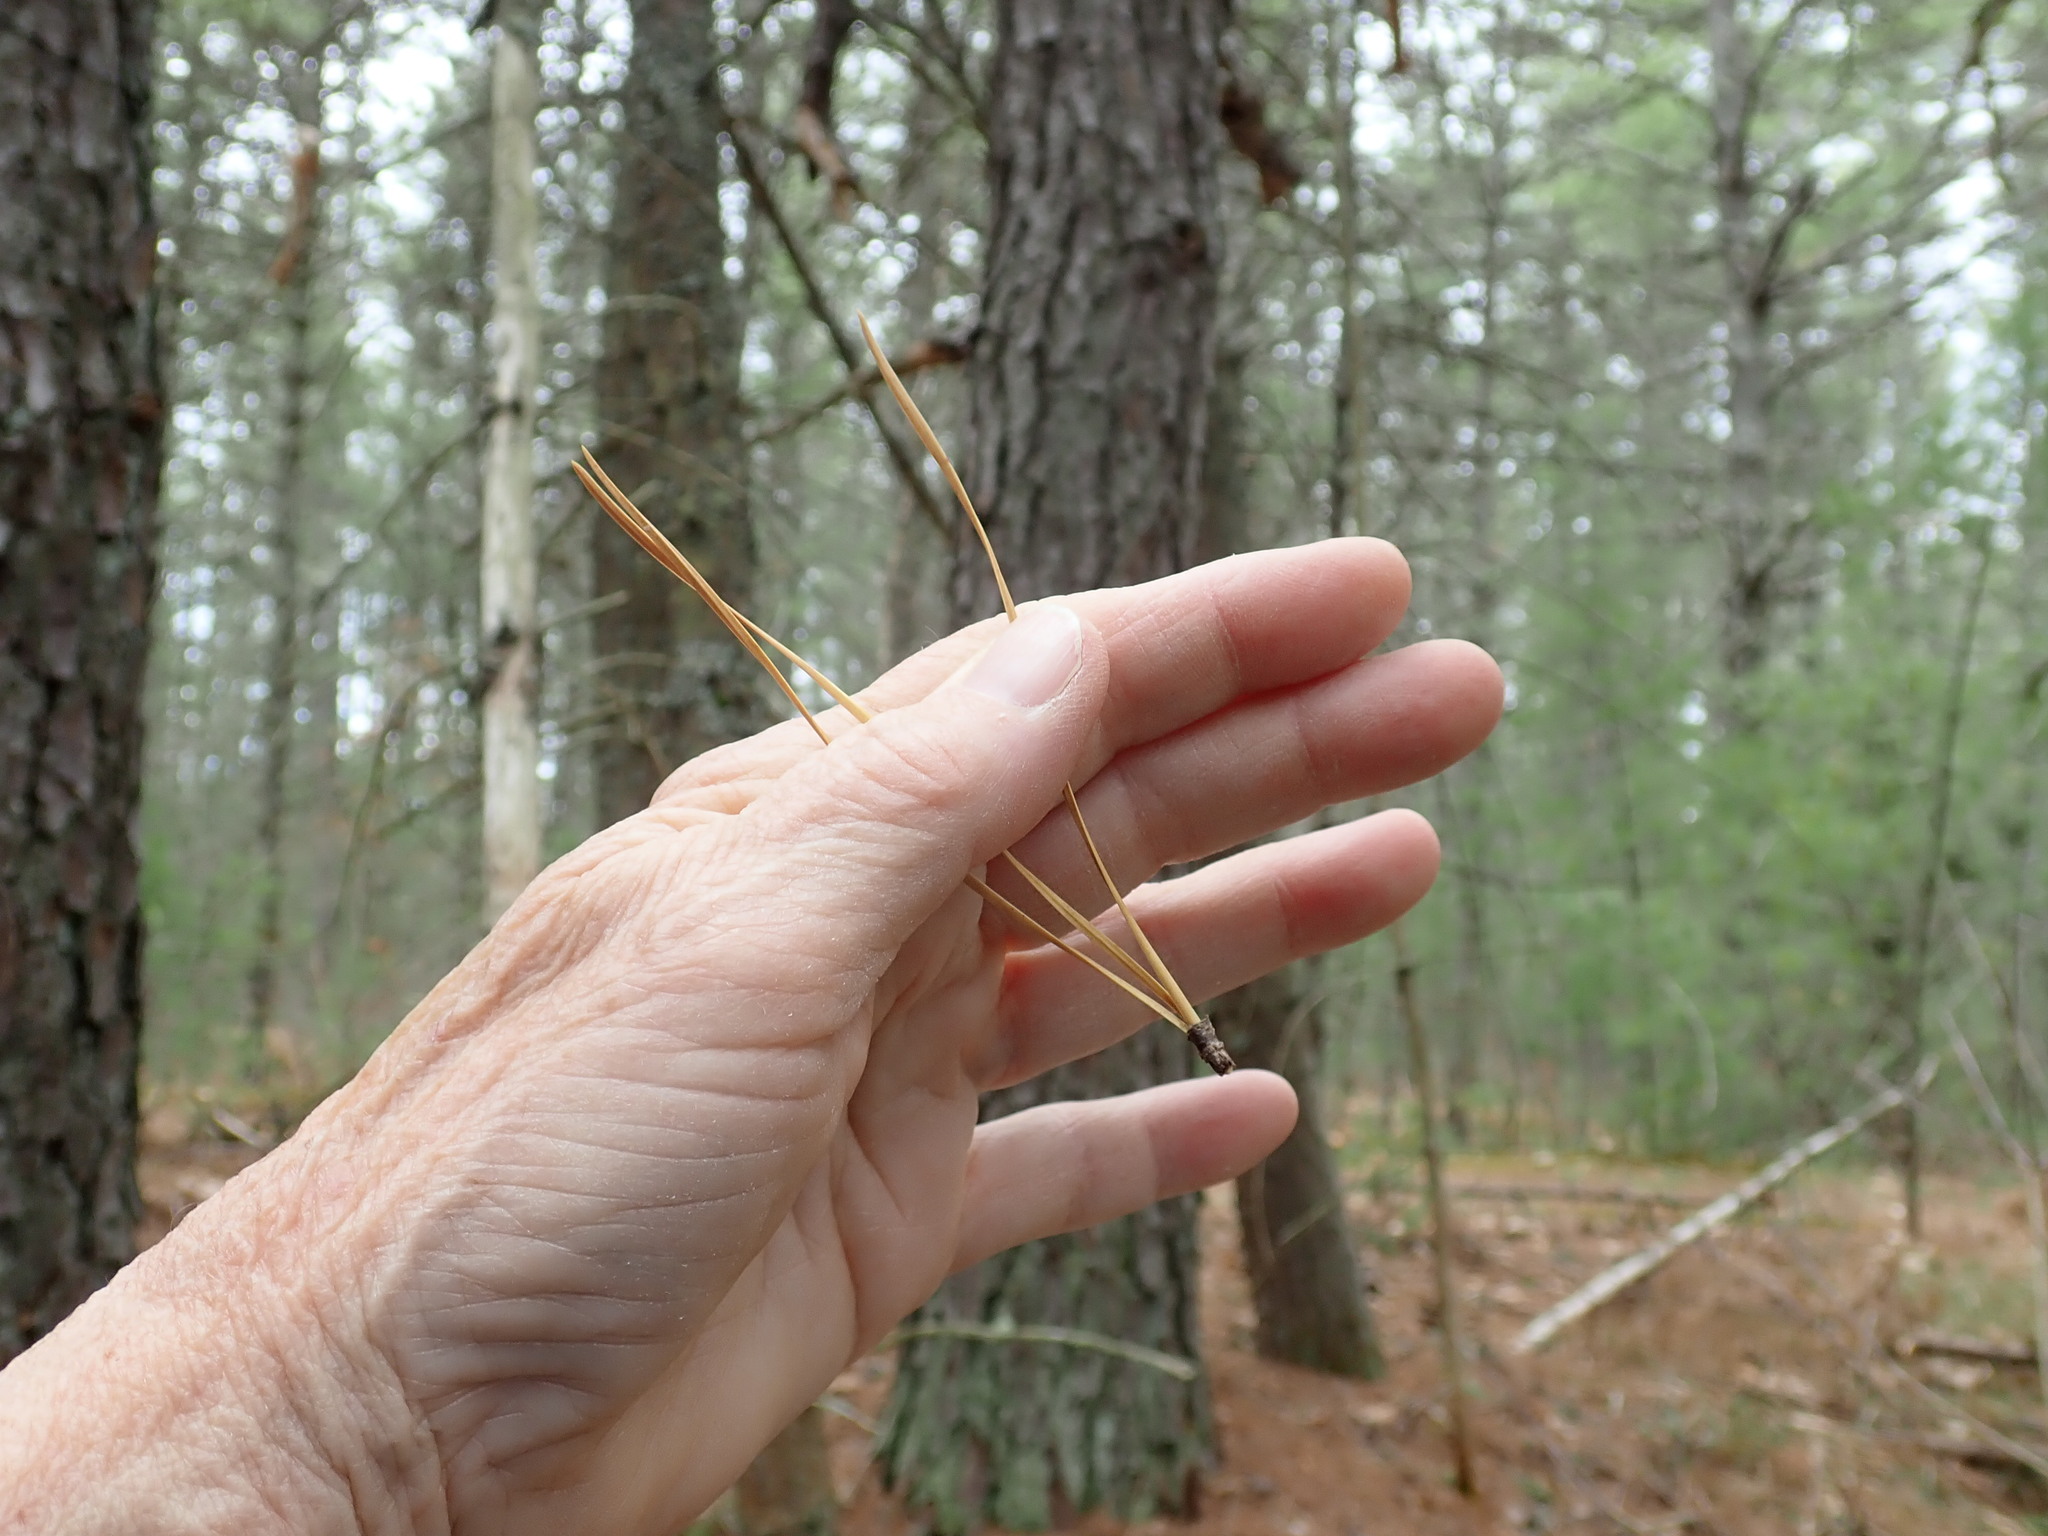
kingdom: Plantae
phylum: Tracheophyta
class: Pinopsida
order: Pinales
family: Pinaceae
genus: Pinus
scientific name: Pinus rigida
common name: Pitch pine
